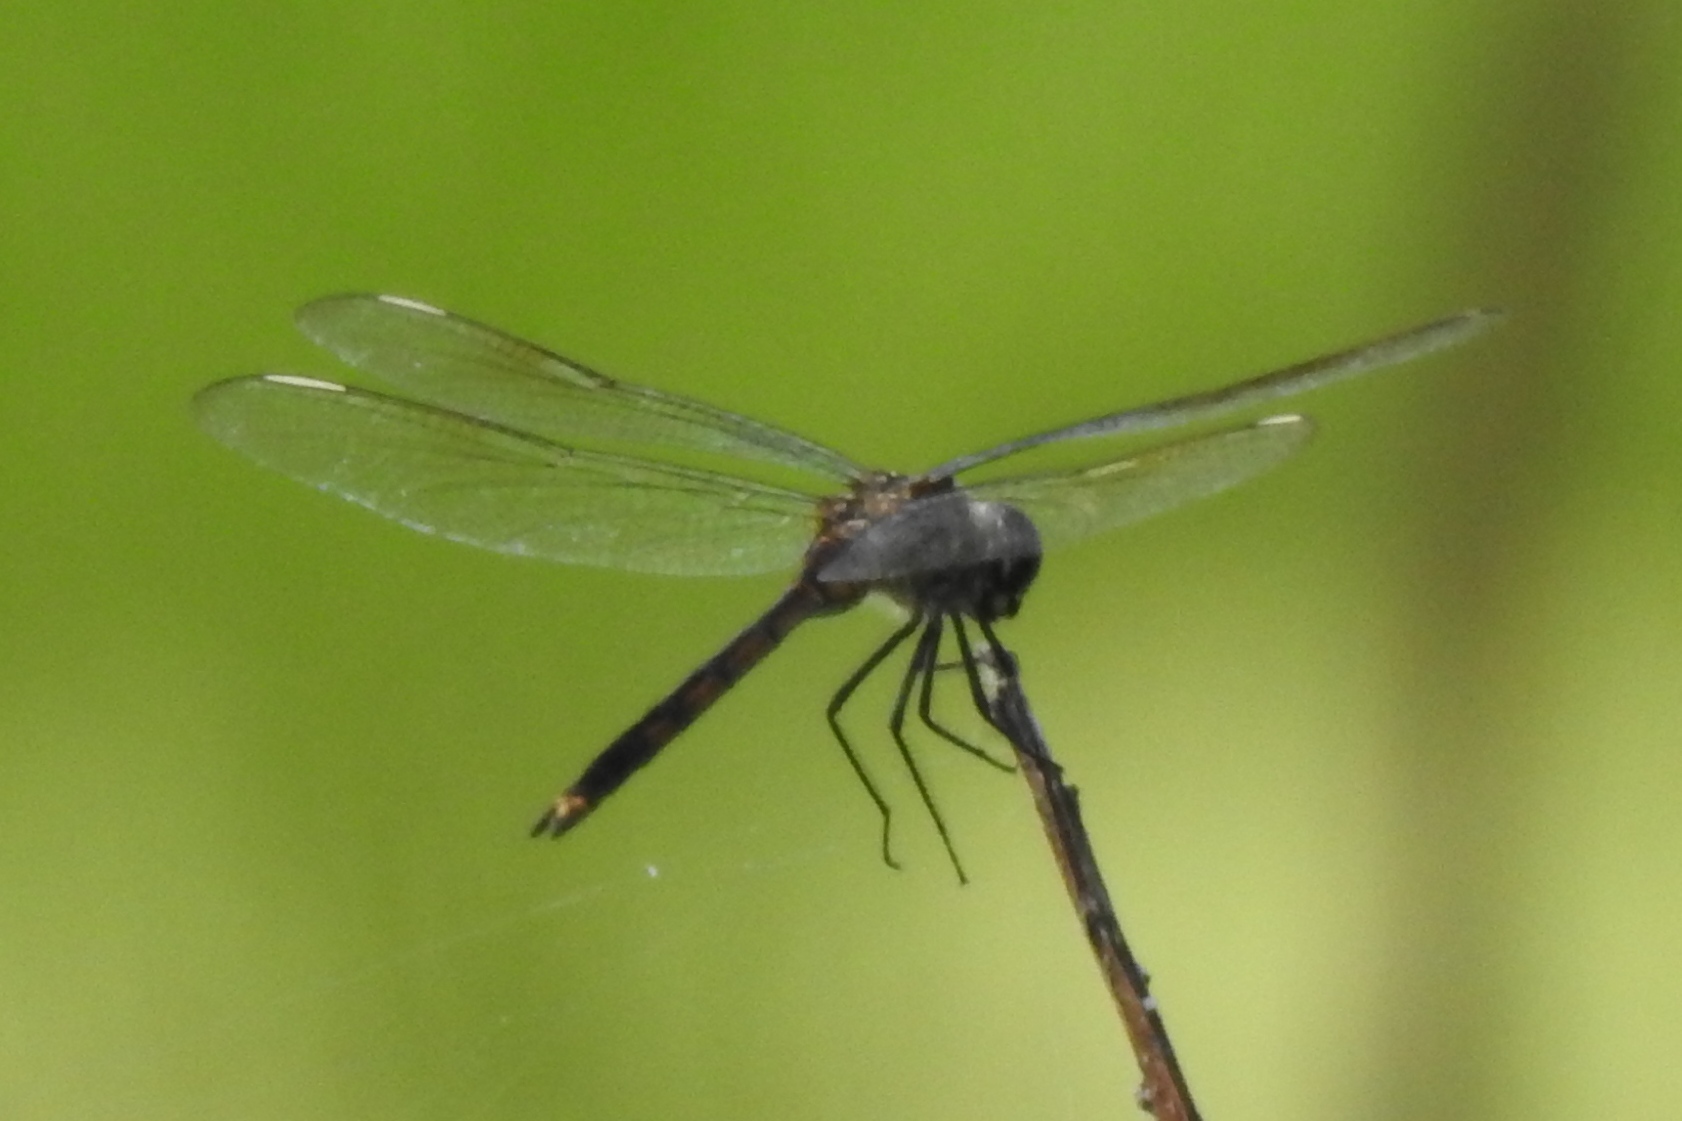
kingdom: Animalia
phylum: Arthropoda
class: Insecta
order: Odonata
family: Libellulidae
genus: Brachymesia
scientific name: Brachymesia gravida
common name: Four-spotted pennant
